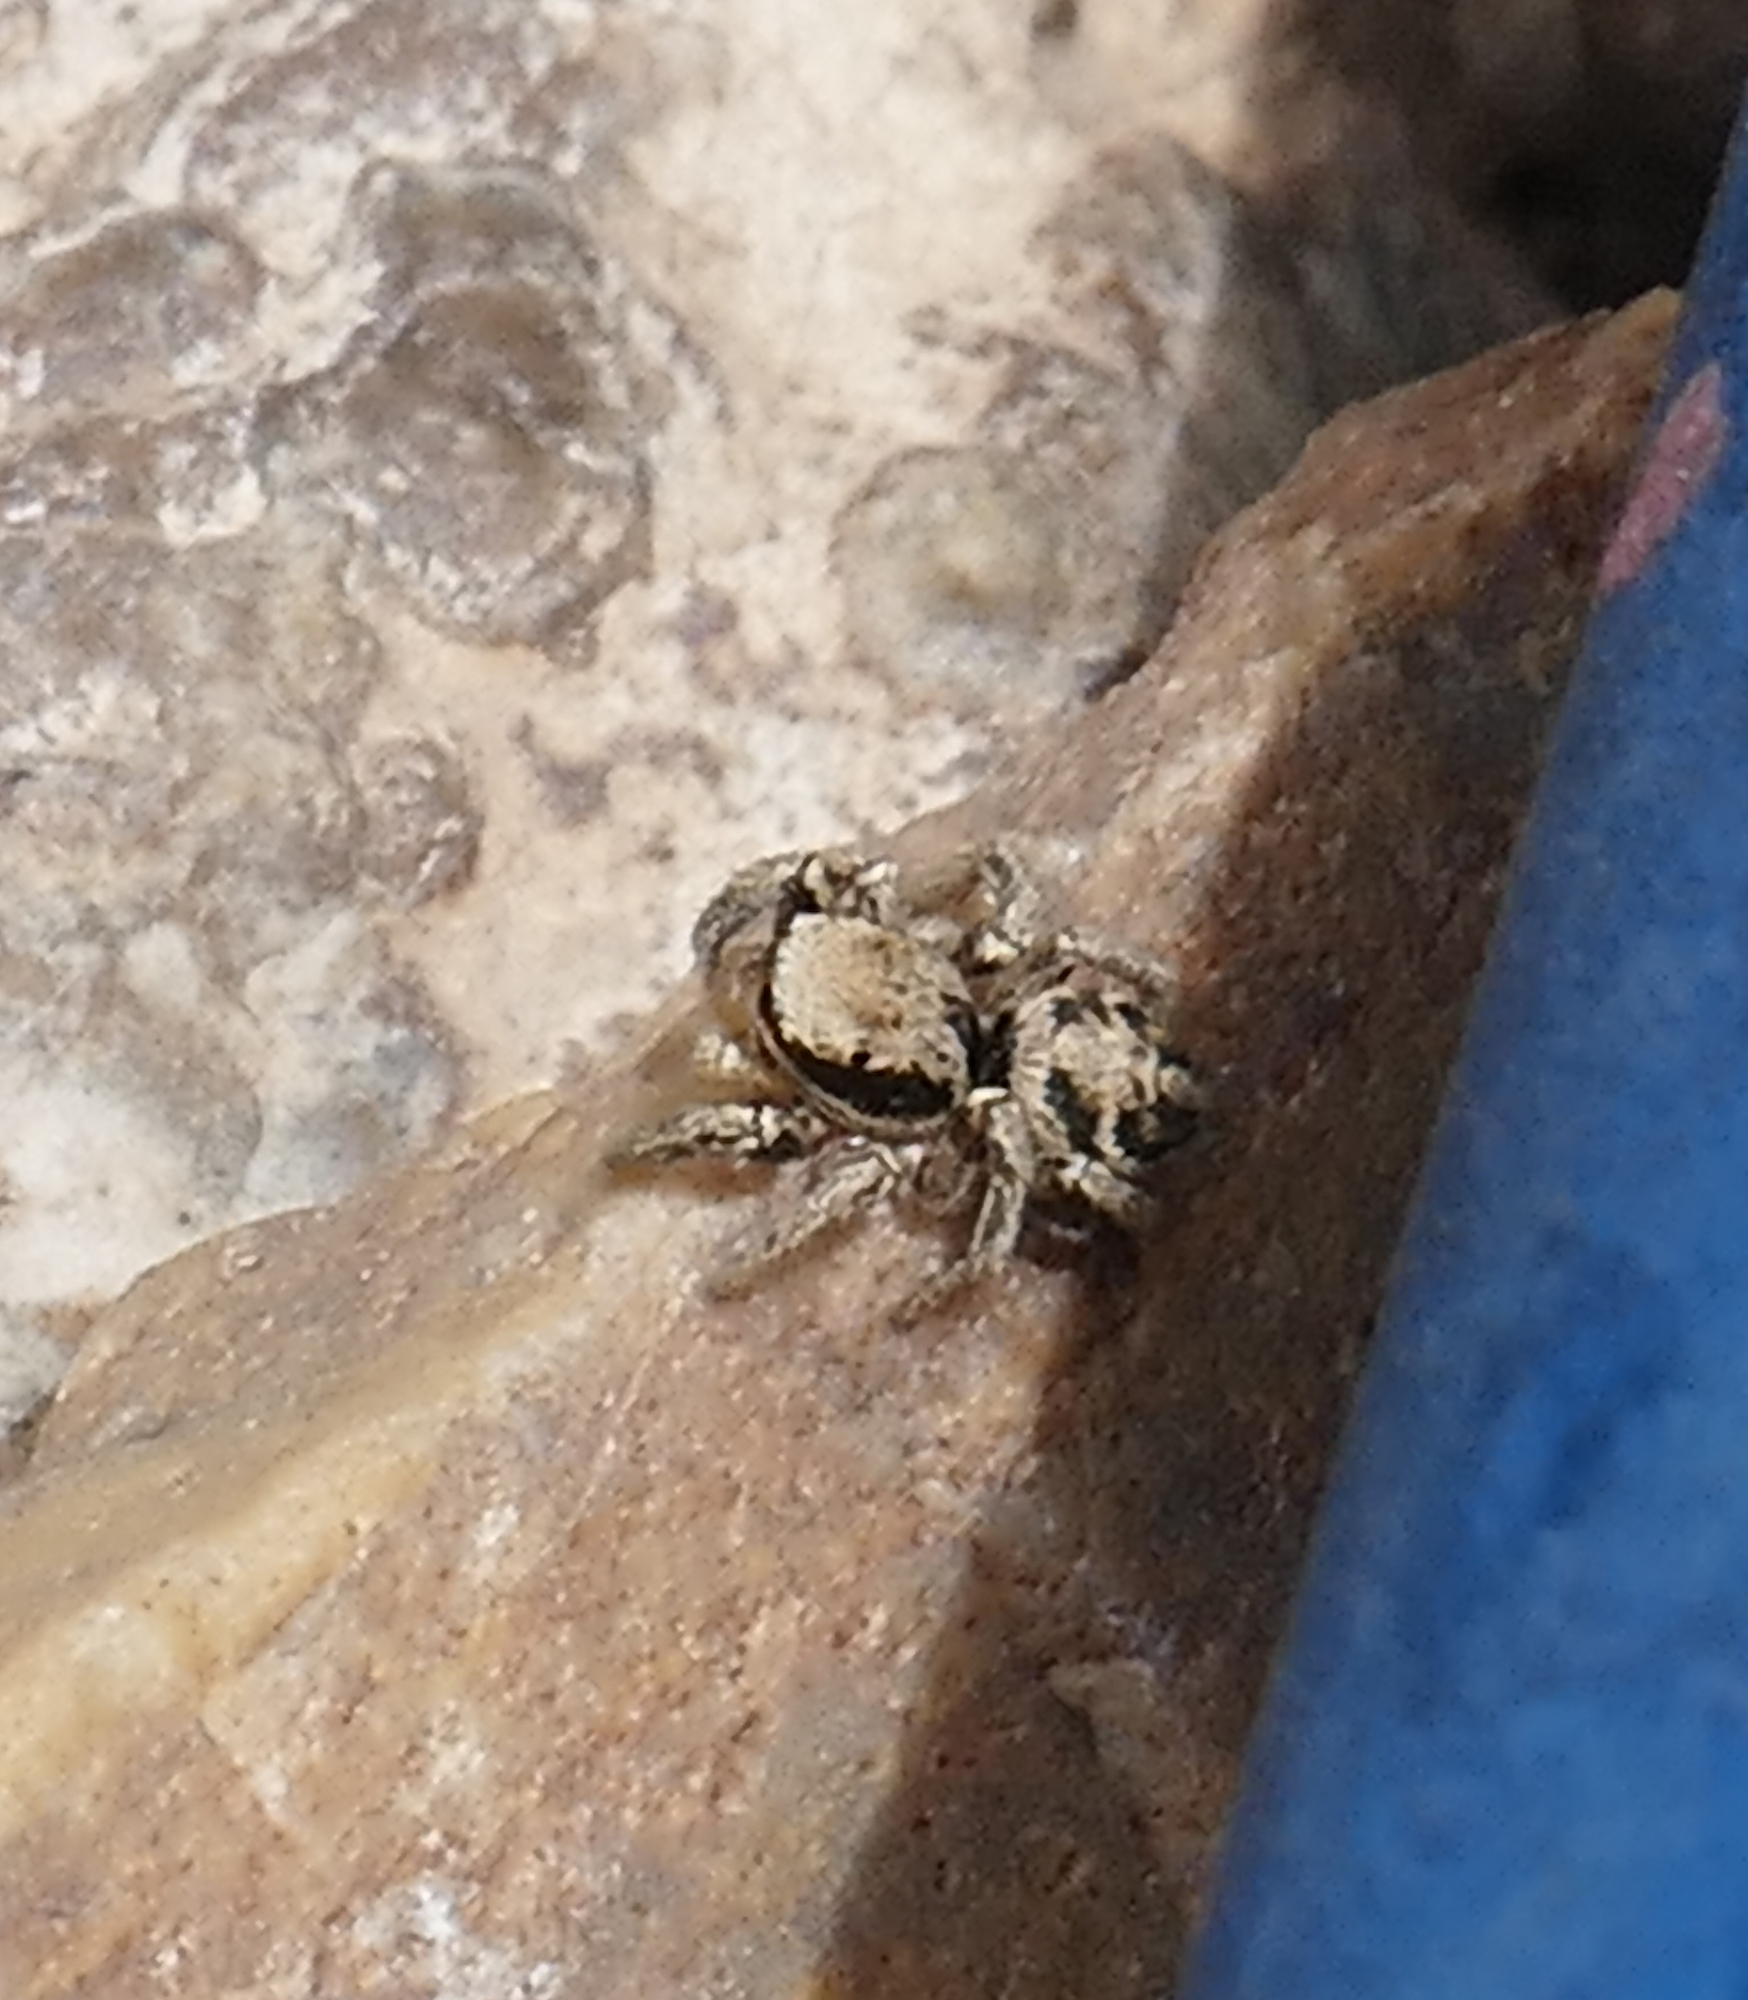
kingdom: Animalia
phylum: Arthropoda
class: Arachnida
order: Araneae
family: Salticidae
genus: Habronattus
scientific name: Habronattus klauseri
